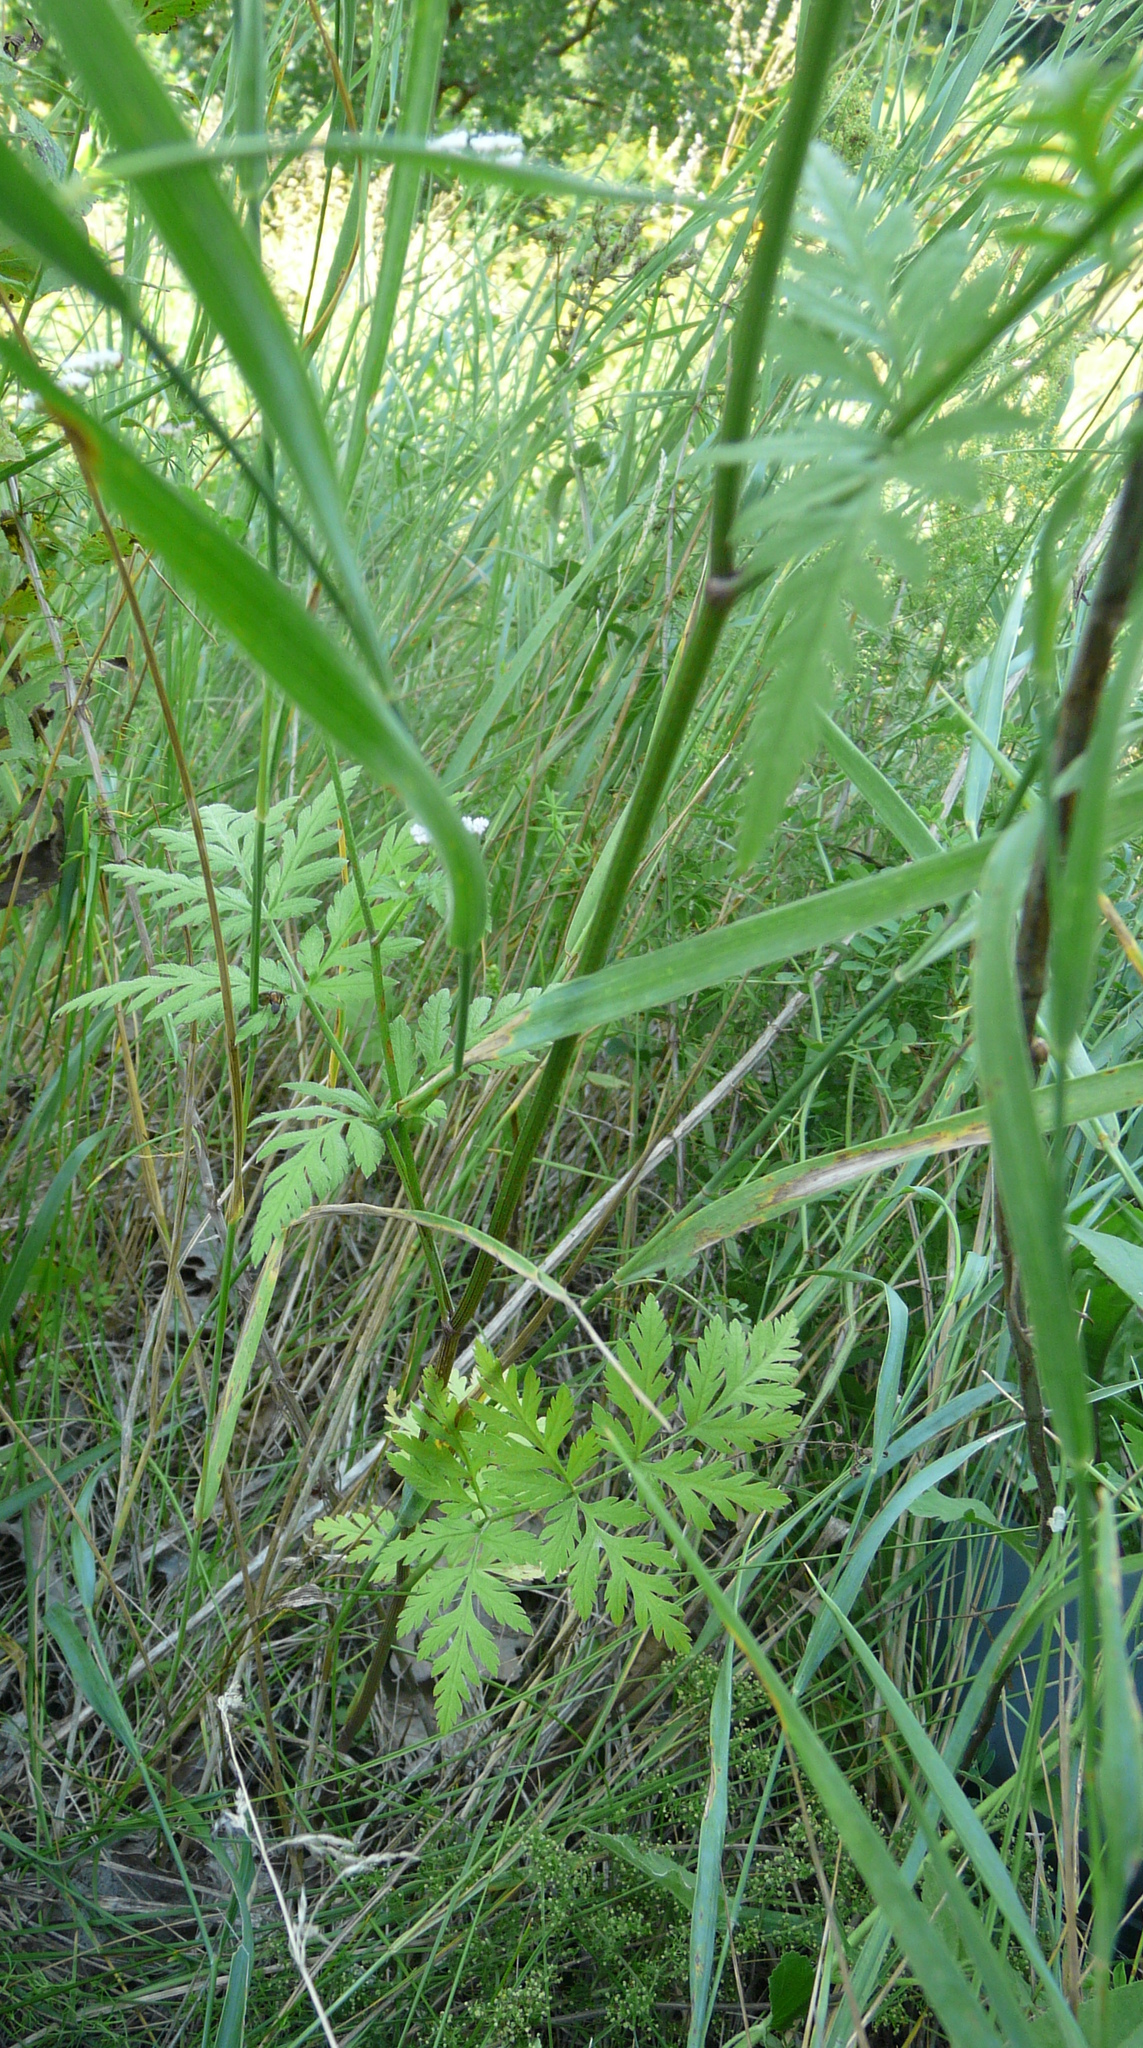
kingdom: Plantae
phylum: Tracheophyta
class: Magnoliopsida
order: Apiales
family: Apiaceae
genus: Torilis
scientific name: Torilis japonica
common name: Upright hedge-parsley
